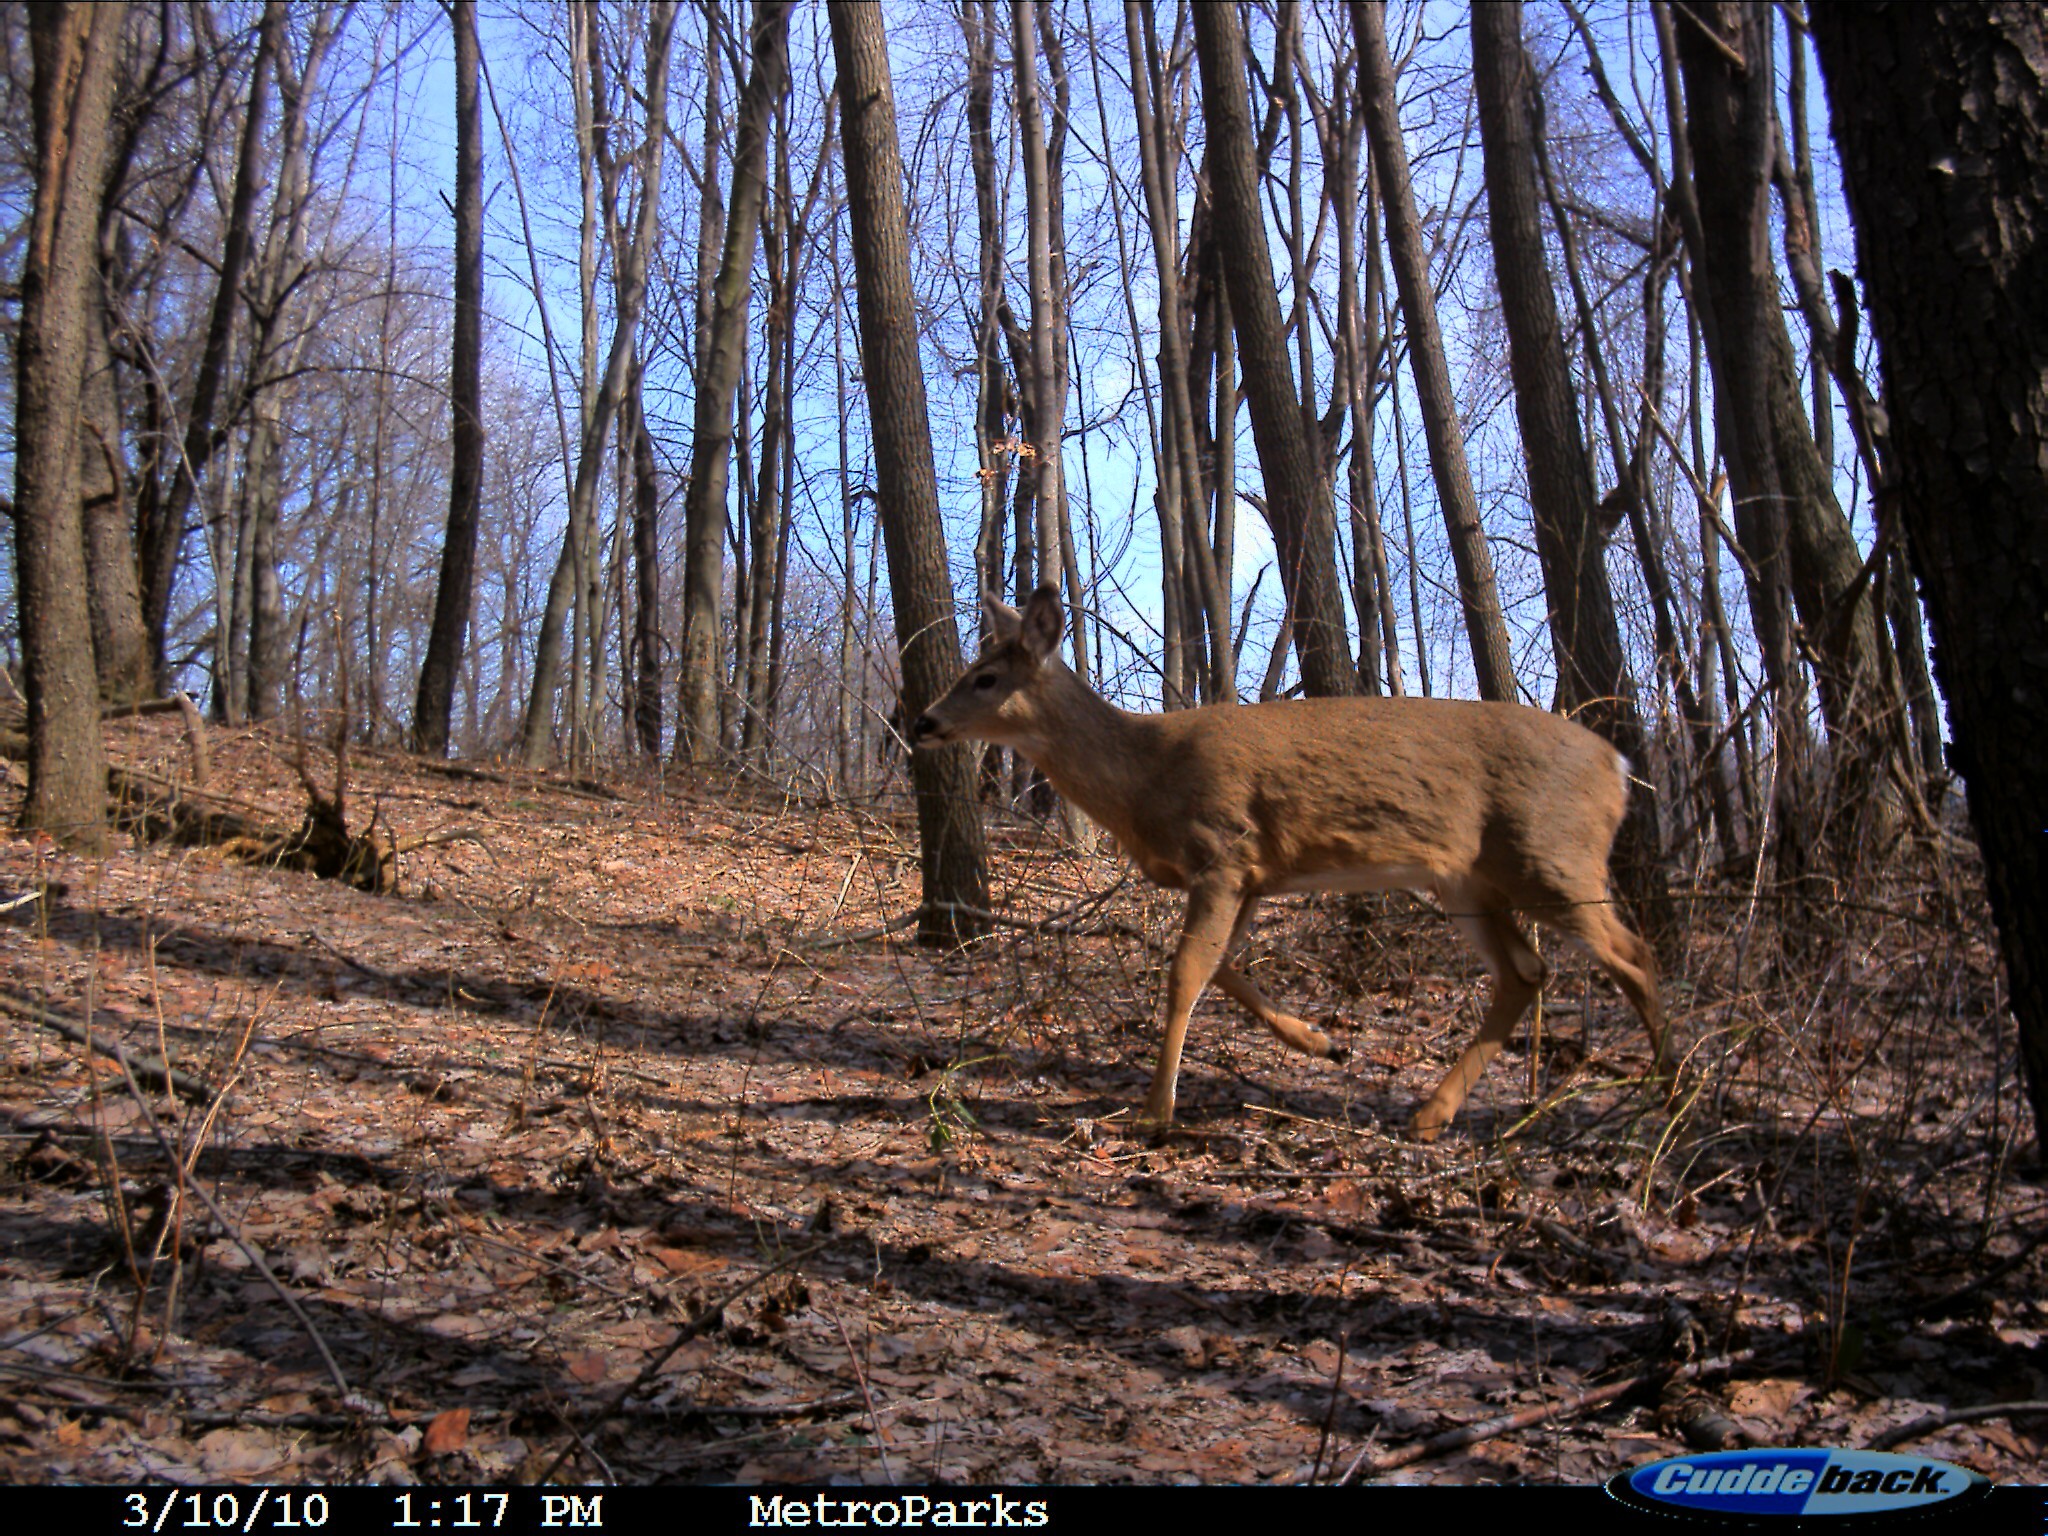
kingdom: Animalia
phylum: Chordata
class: Mammalia
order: Artiodactyla
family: Cervidae
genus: Odocoileus
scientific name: Odocoileus virginianus
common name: White-tailed deer
